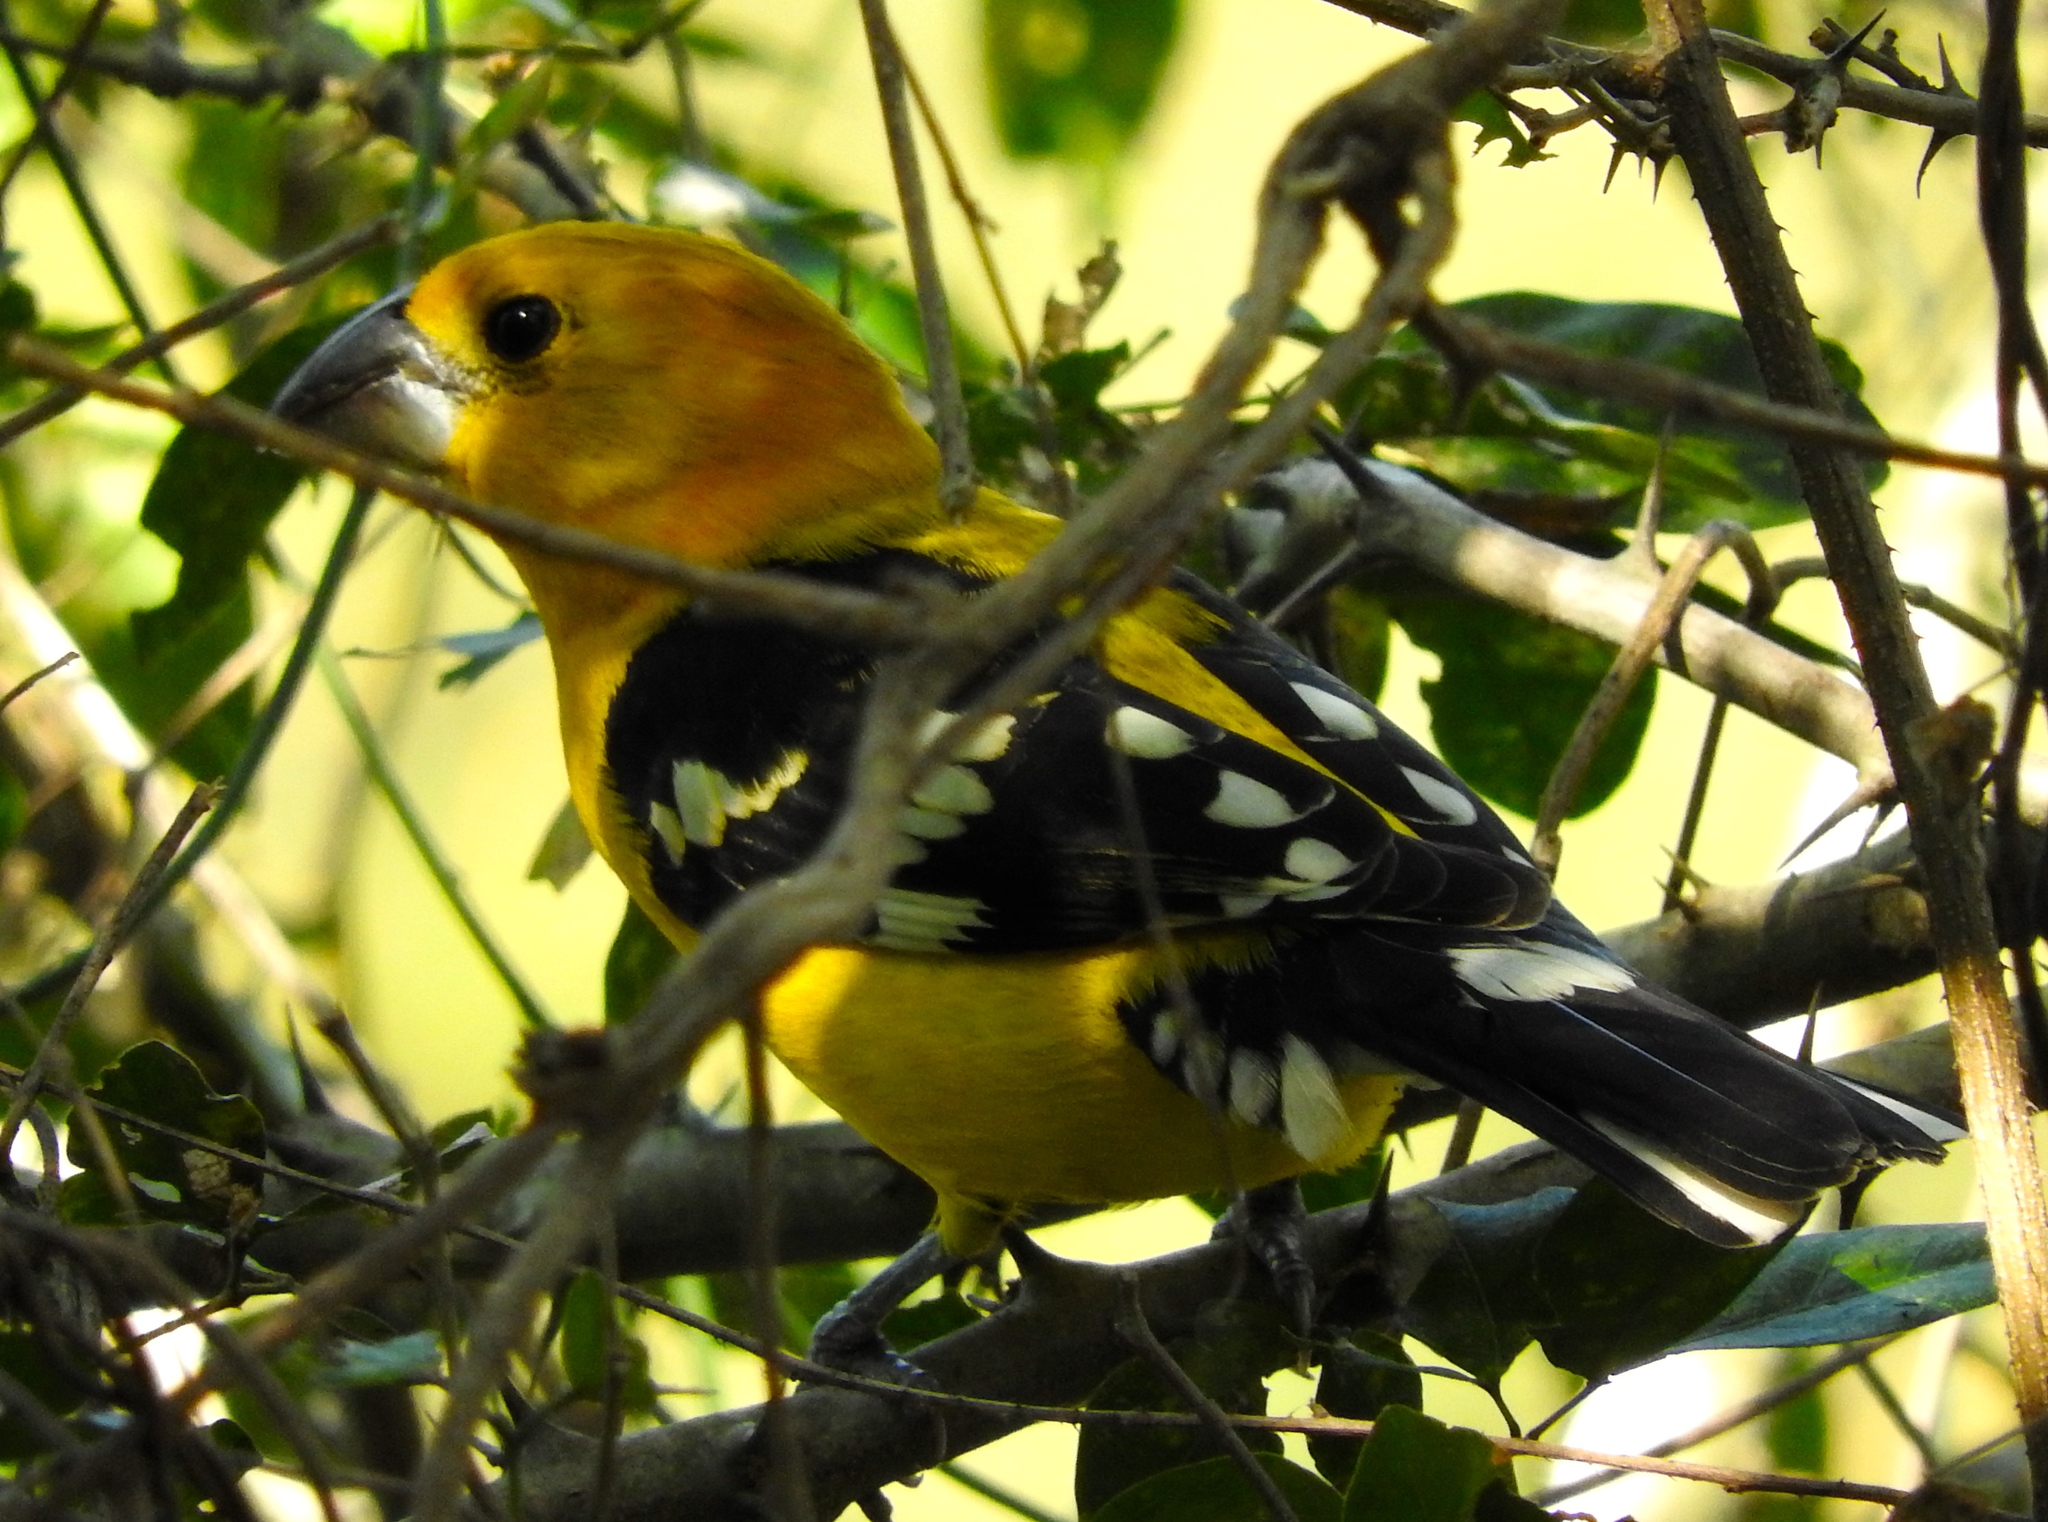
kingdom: Animalia
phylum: Chordata
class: Aves
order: Passeriformes
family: Cardinalidae
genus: Pheucticus
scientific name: Pheucticus chrysopeplus
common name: Yellow grosbeak
